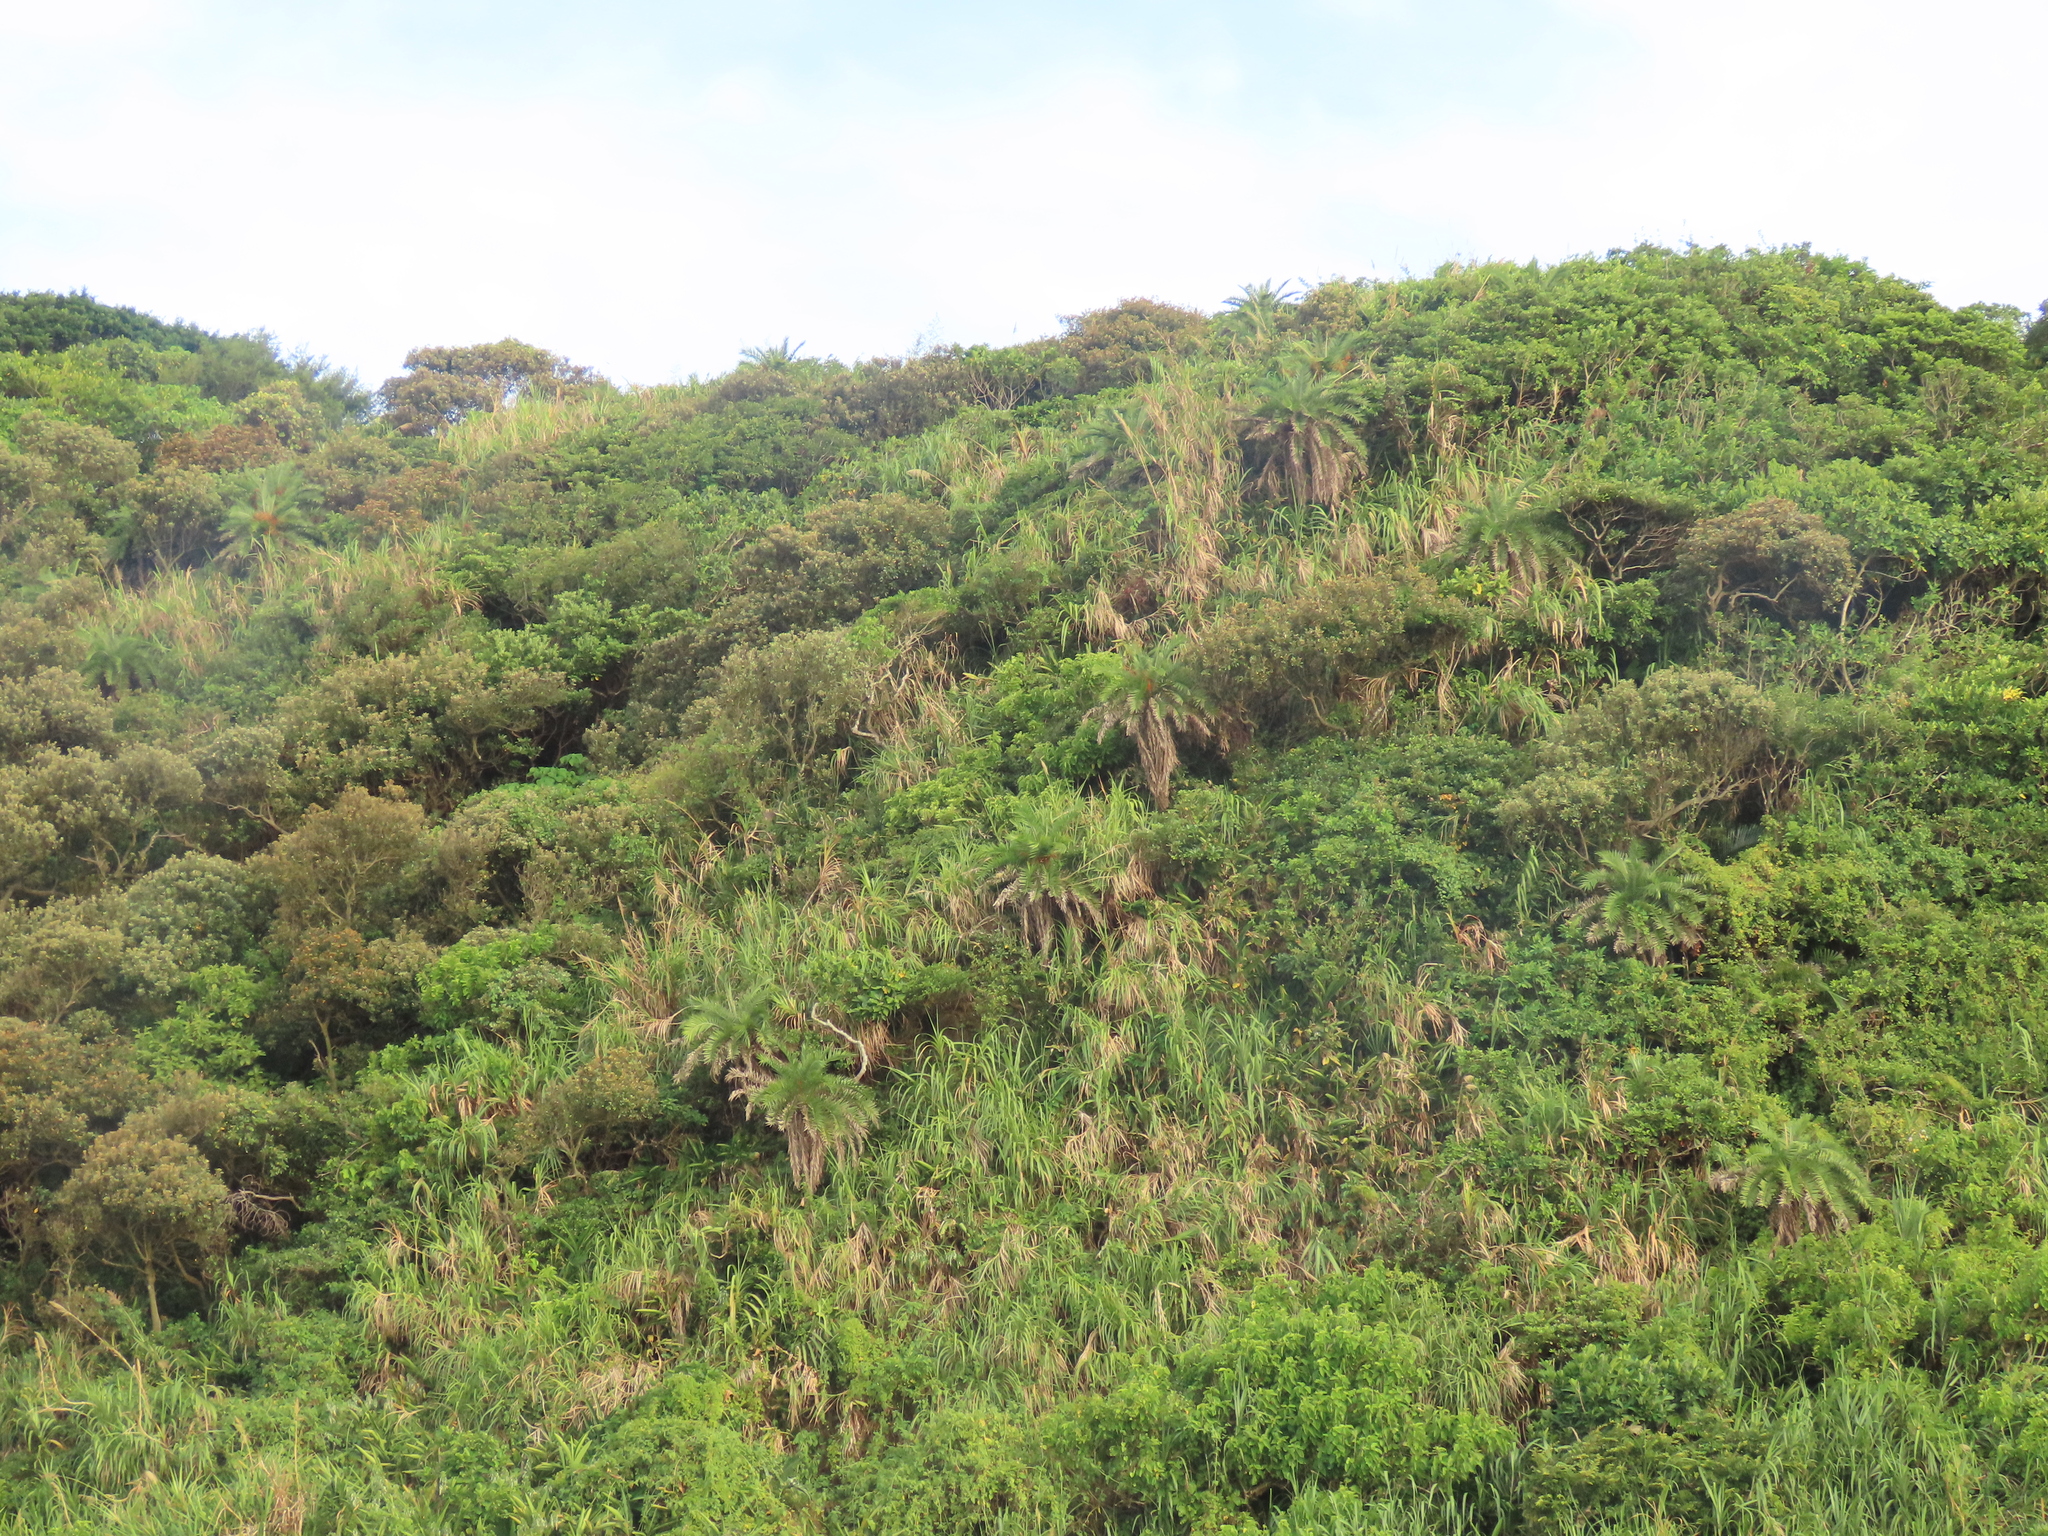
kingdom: Plantae
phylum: Tracheophyta
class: Liliopsida
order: Arecales
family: Arecaceae
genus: Phoenix
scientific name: Phoenix loureiroi
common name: Loureiro's palm
